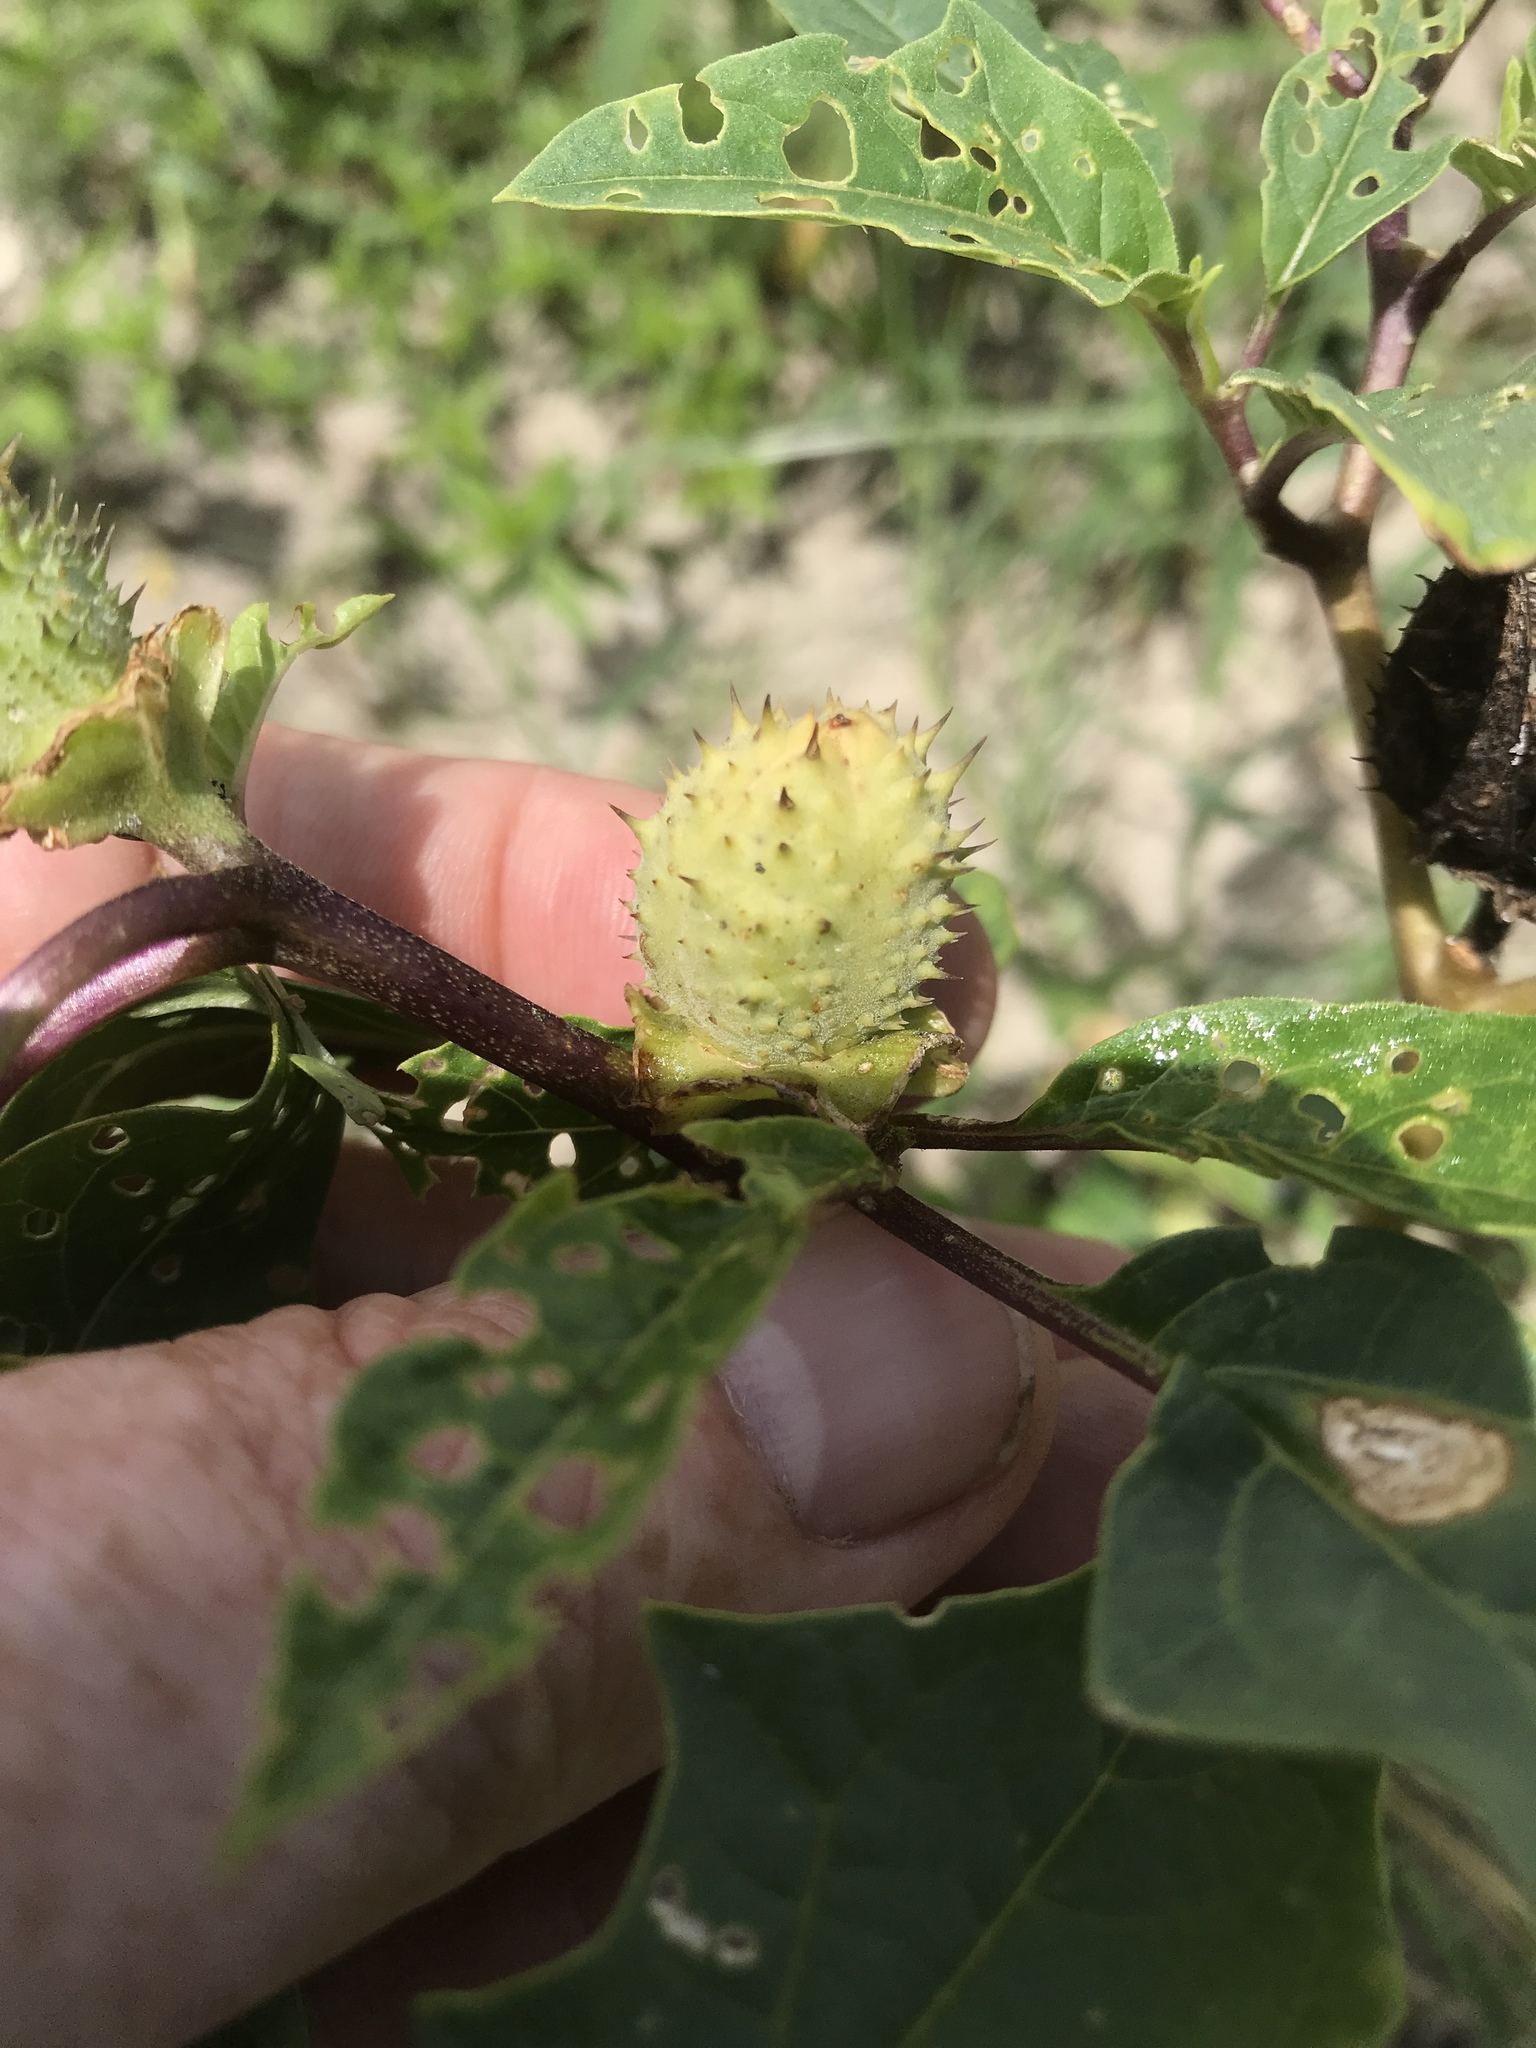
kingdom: Plantae
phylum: Tracheophyta
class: Magnoliopsida
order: Solanales
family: Solanaceae
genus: Datura
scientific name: Datura stramonium
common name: Thorn-apple
